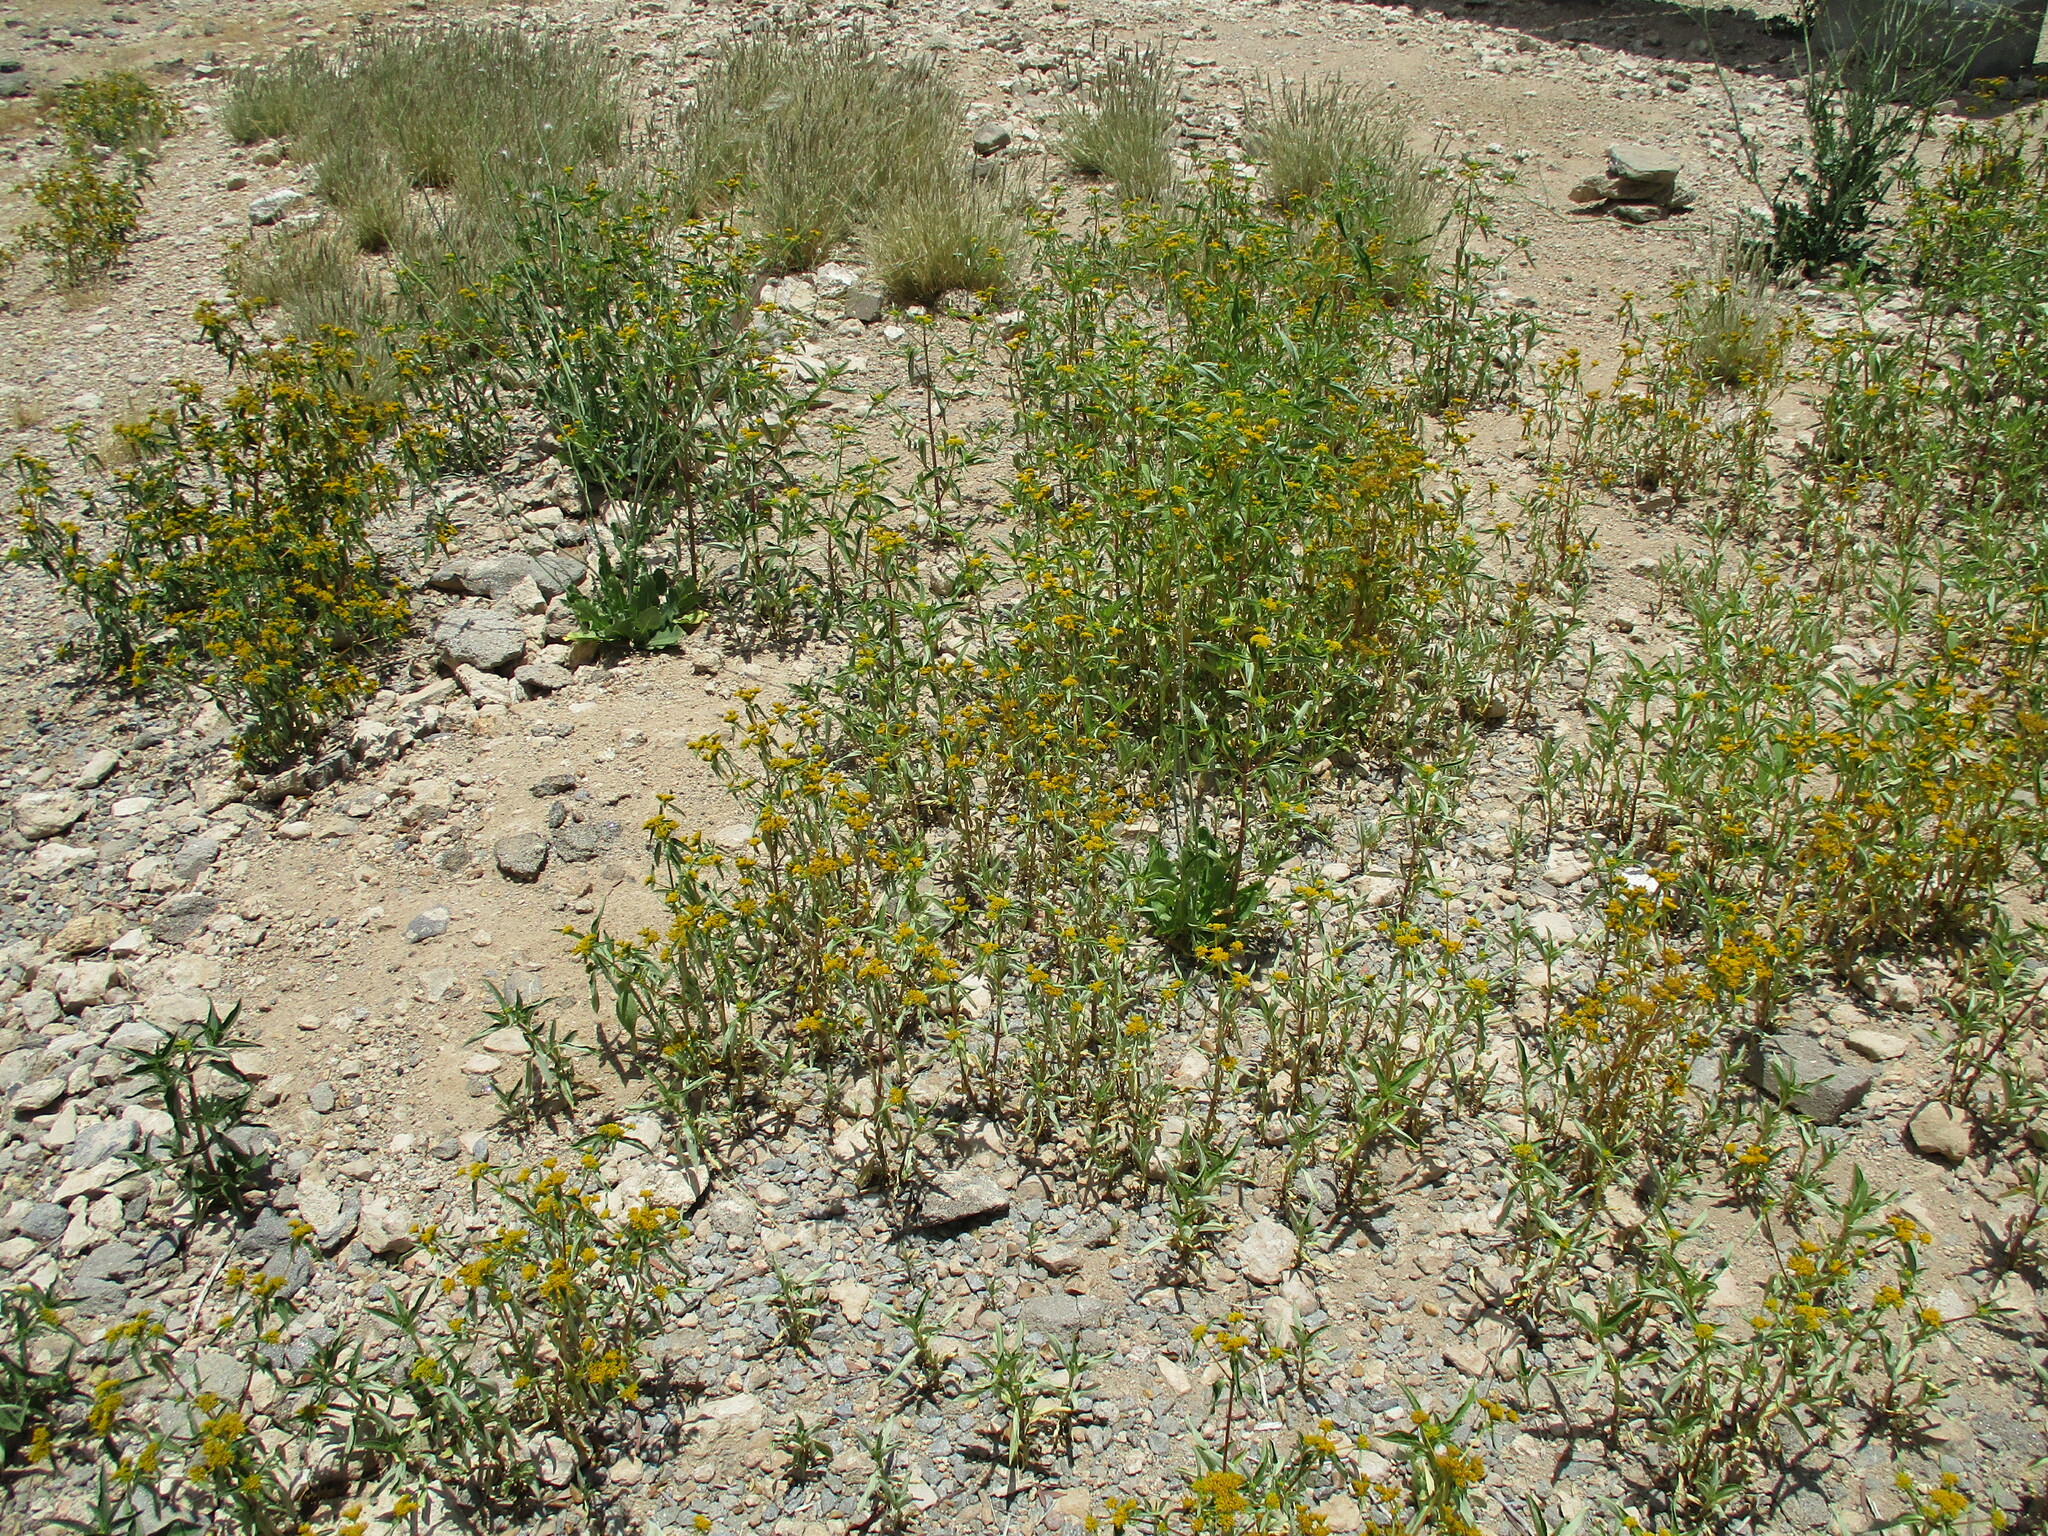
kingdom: Plantae
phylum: Tracheophyta
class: Magnoliopsida
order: Asterales
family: Asteraceae
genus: Flaveria
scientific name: Flaveria bidentis
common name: Coastal plain yellowtops
